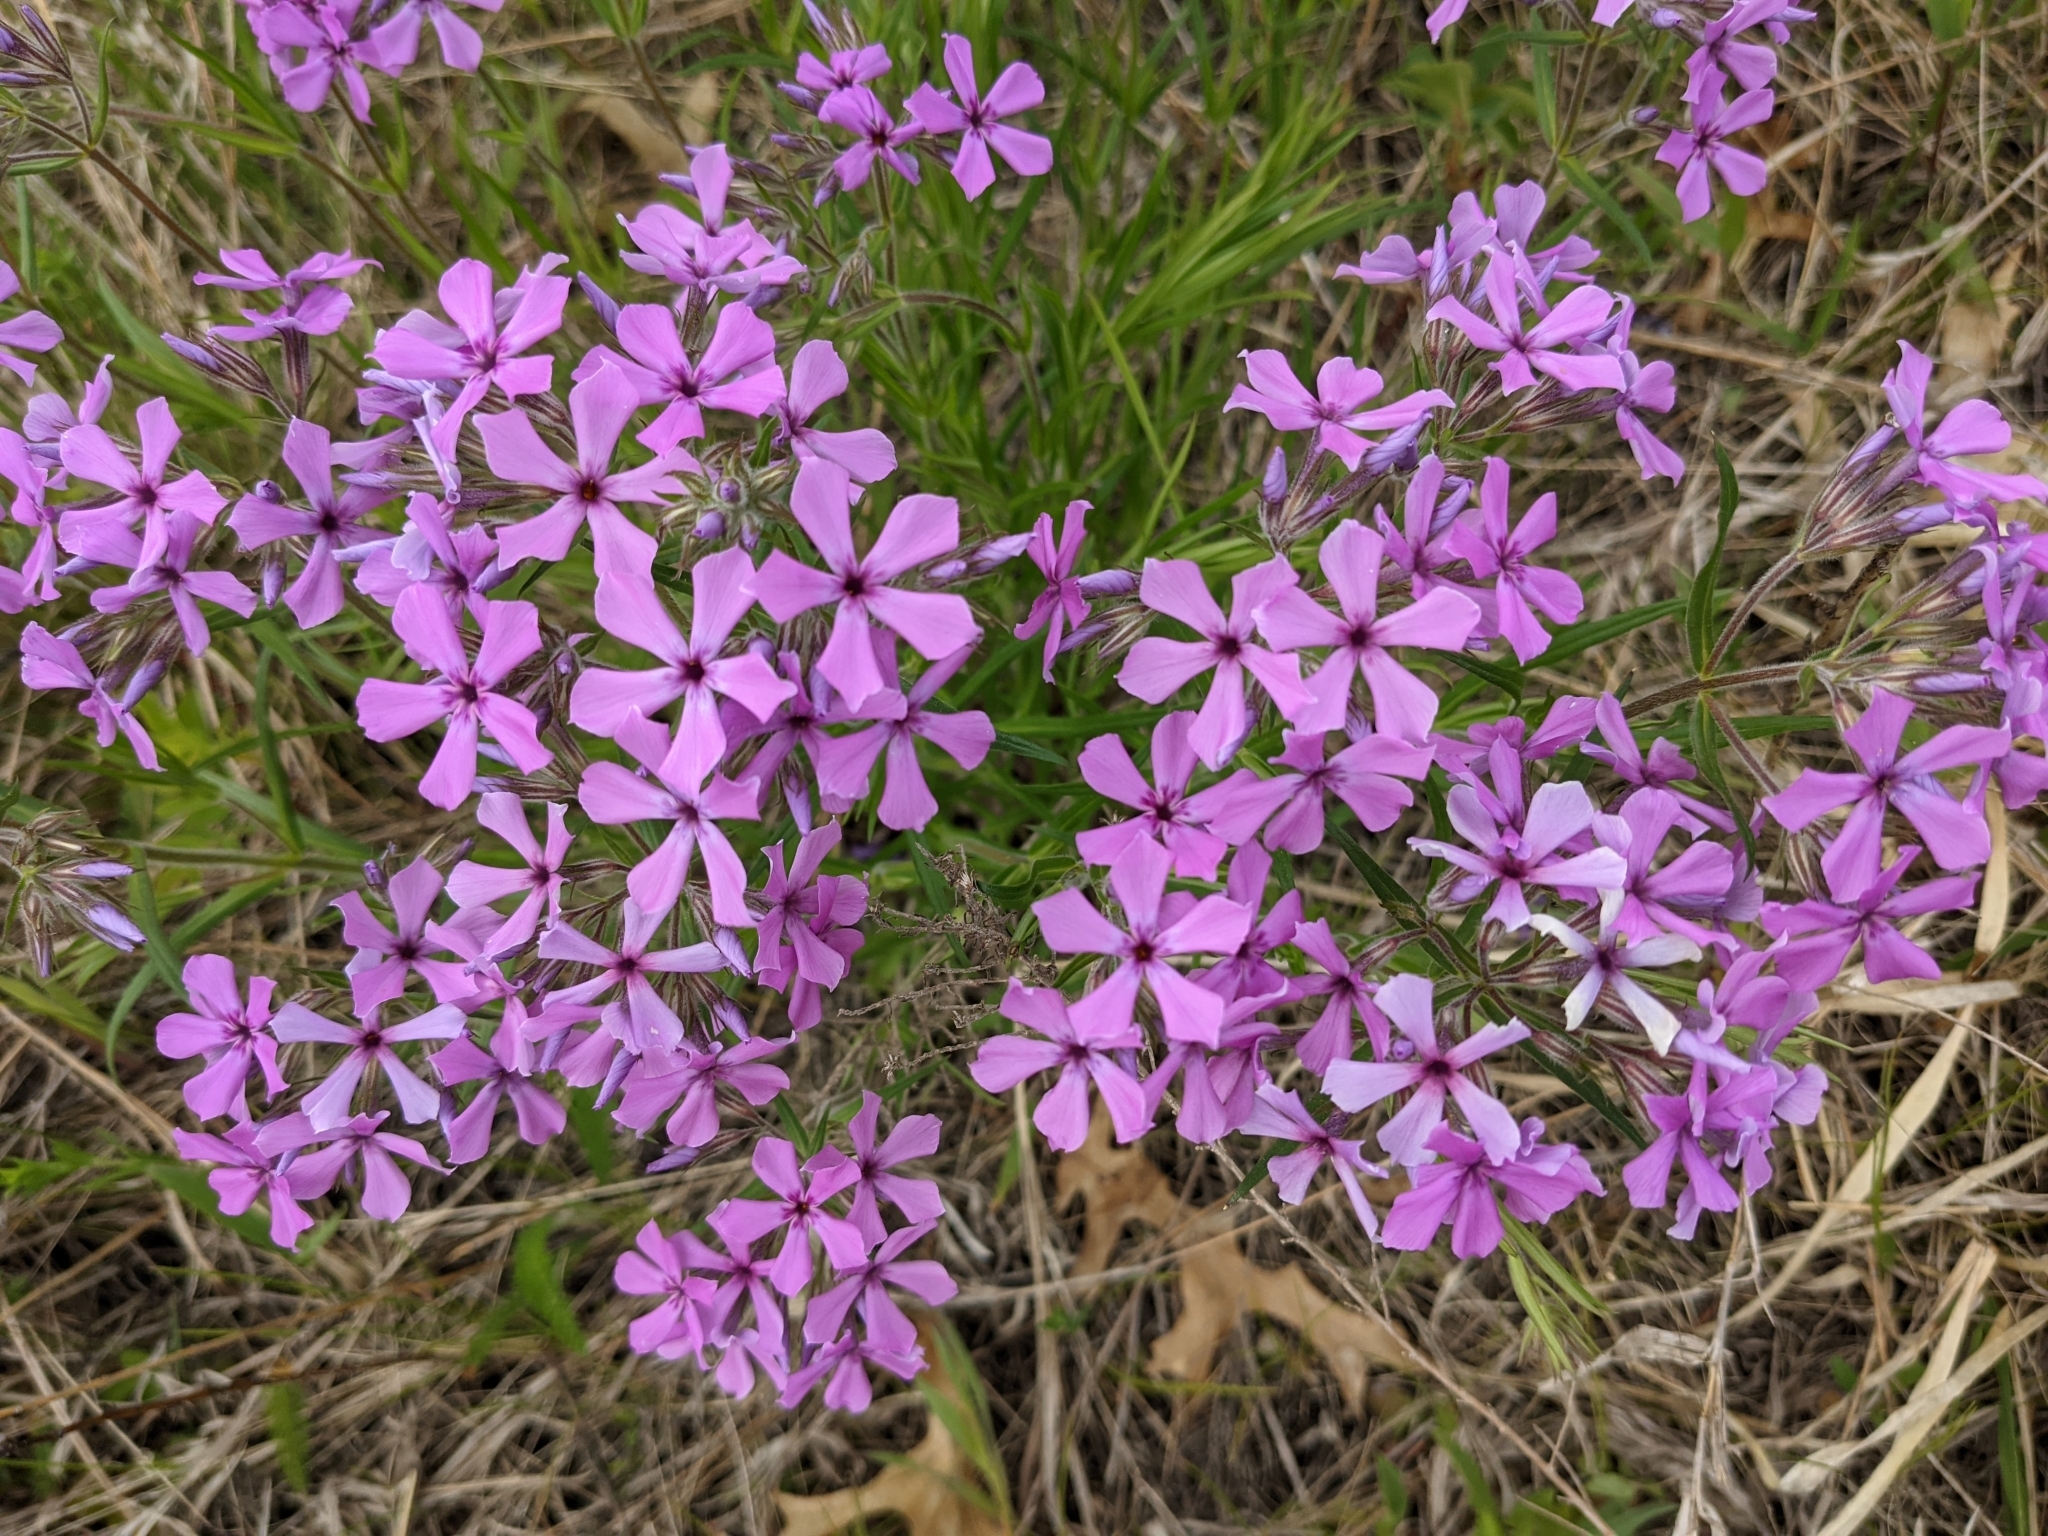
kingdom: Plantae
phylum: Tracheophyta
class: Magnoliopsida
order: Ericales
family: Polemoniaceae
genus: Phlox
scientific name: Phlox pilosa
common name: Prairie phlox
